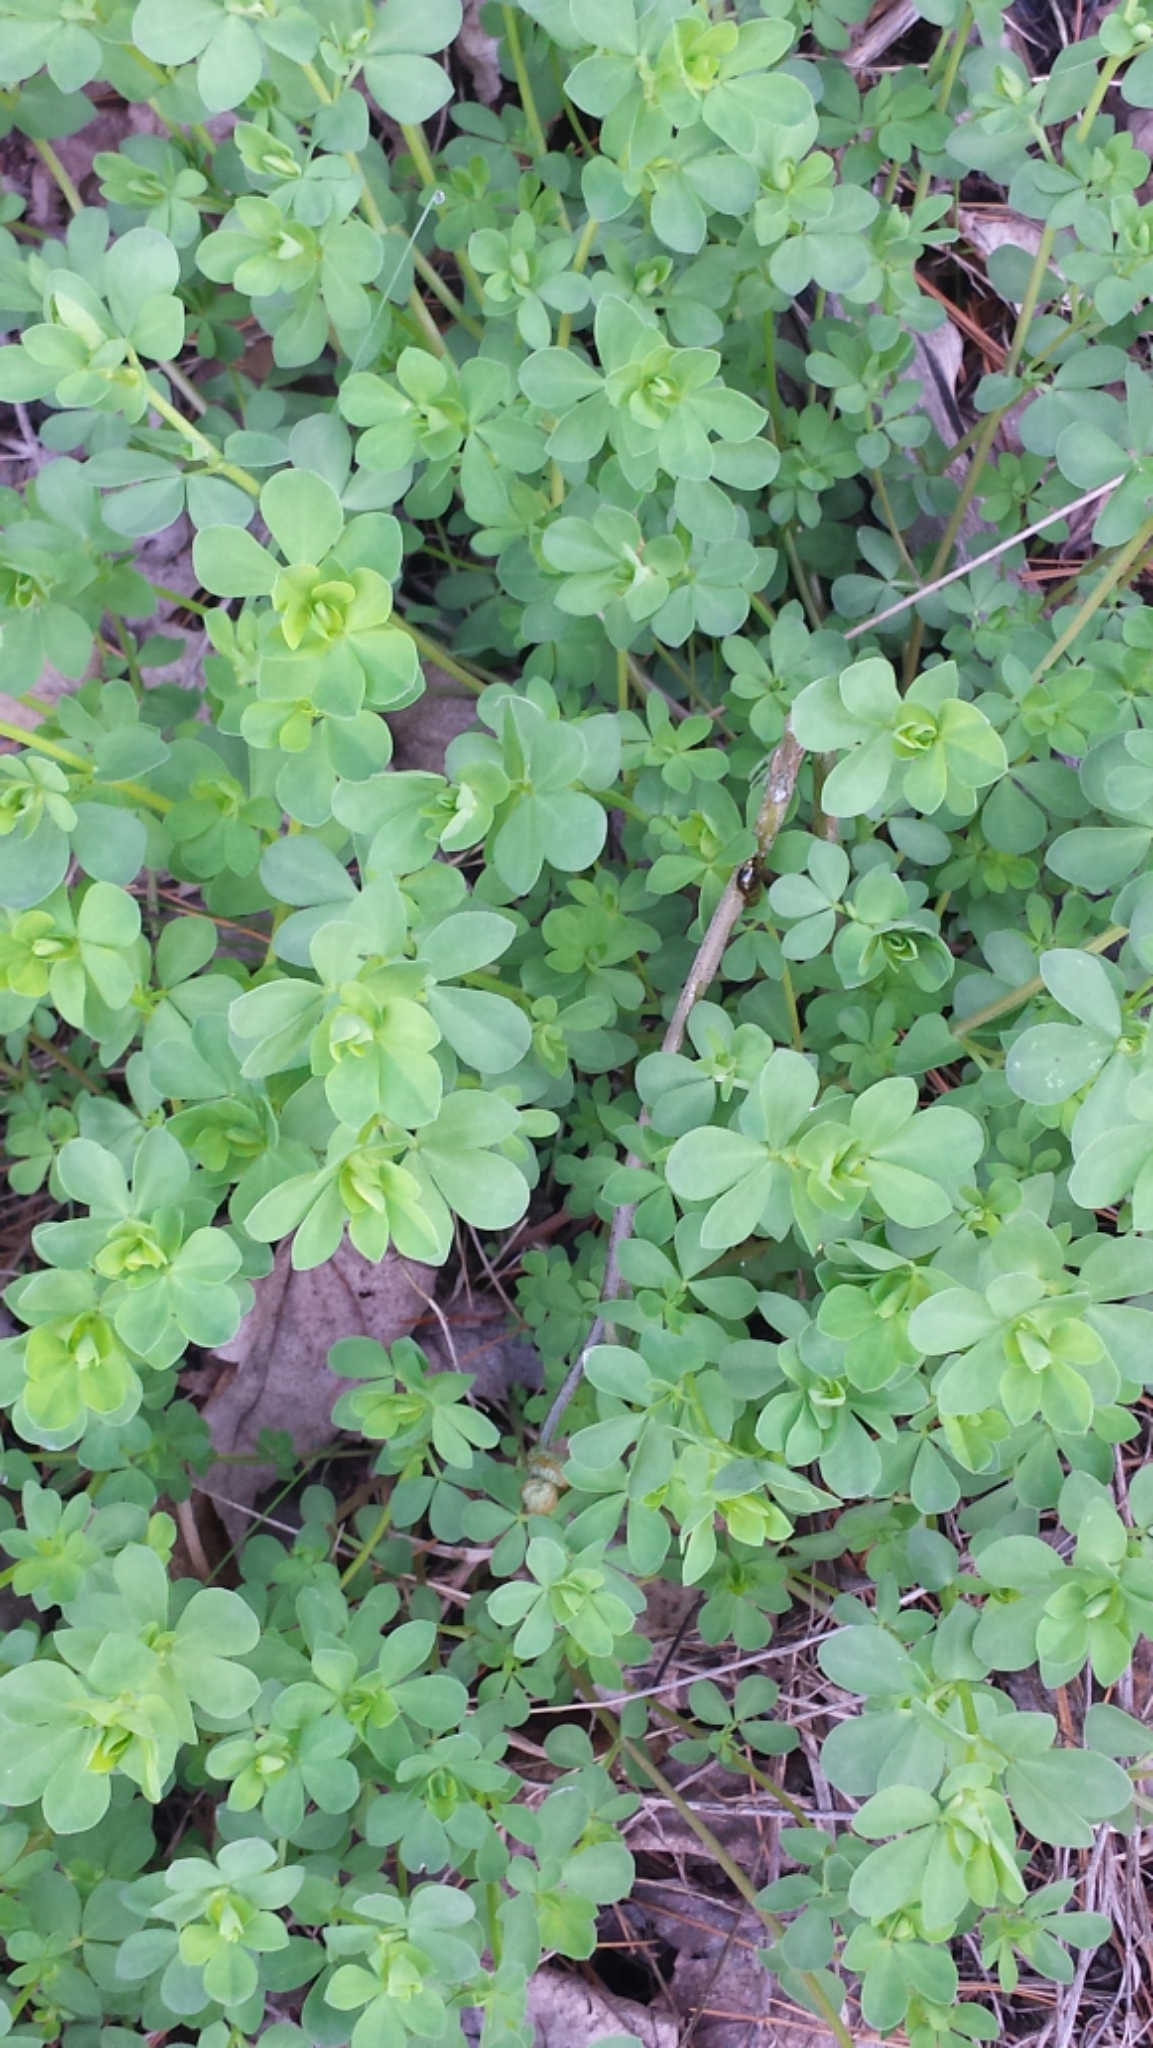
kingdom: Plantae
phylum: Tracheophyta
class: Magnoliopsida
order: Fabales
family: Fabaceae
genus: Lotus
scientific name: Lotus corniculatus
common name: Common bird's-foot-trefoil
